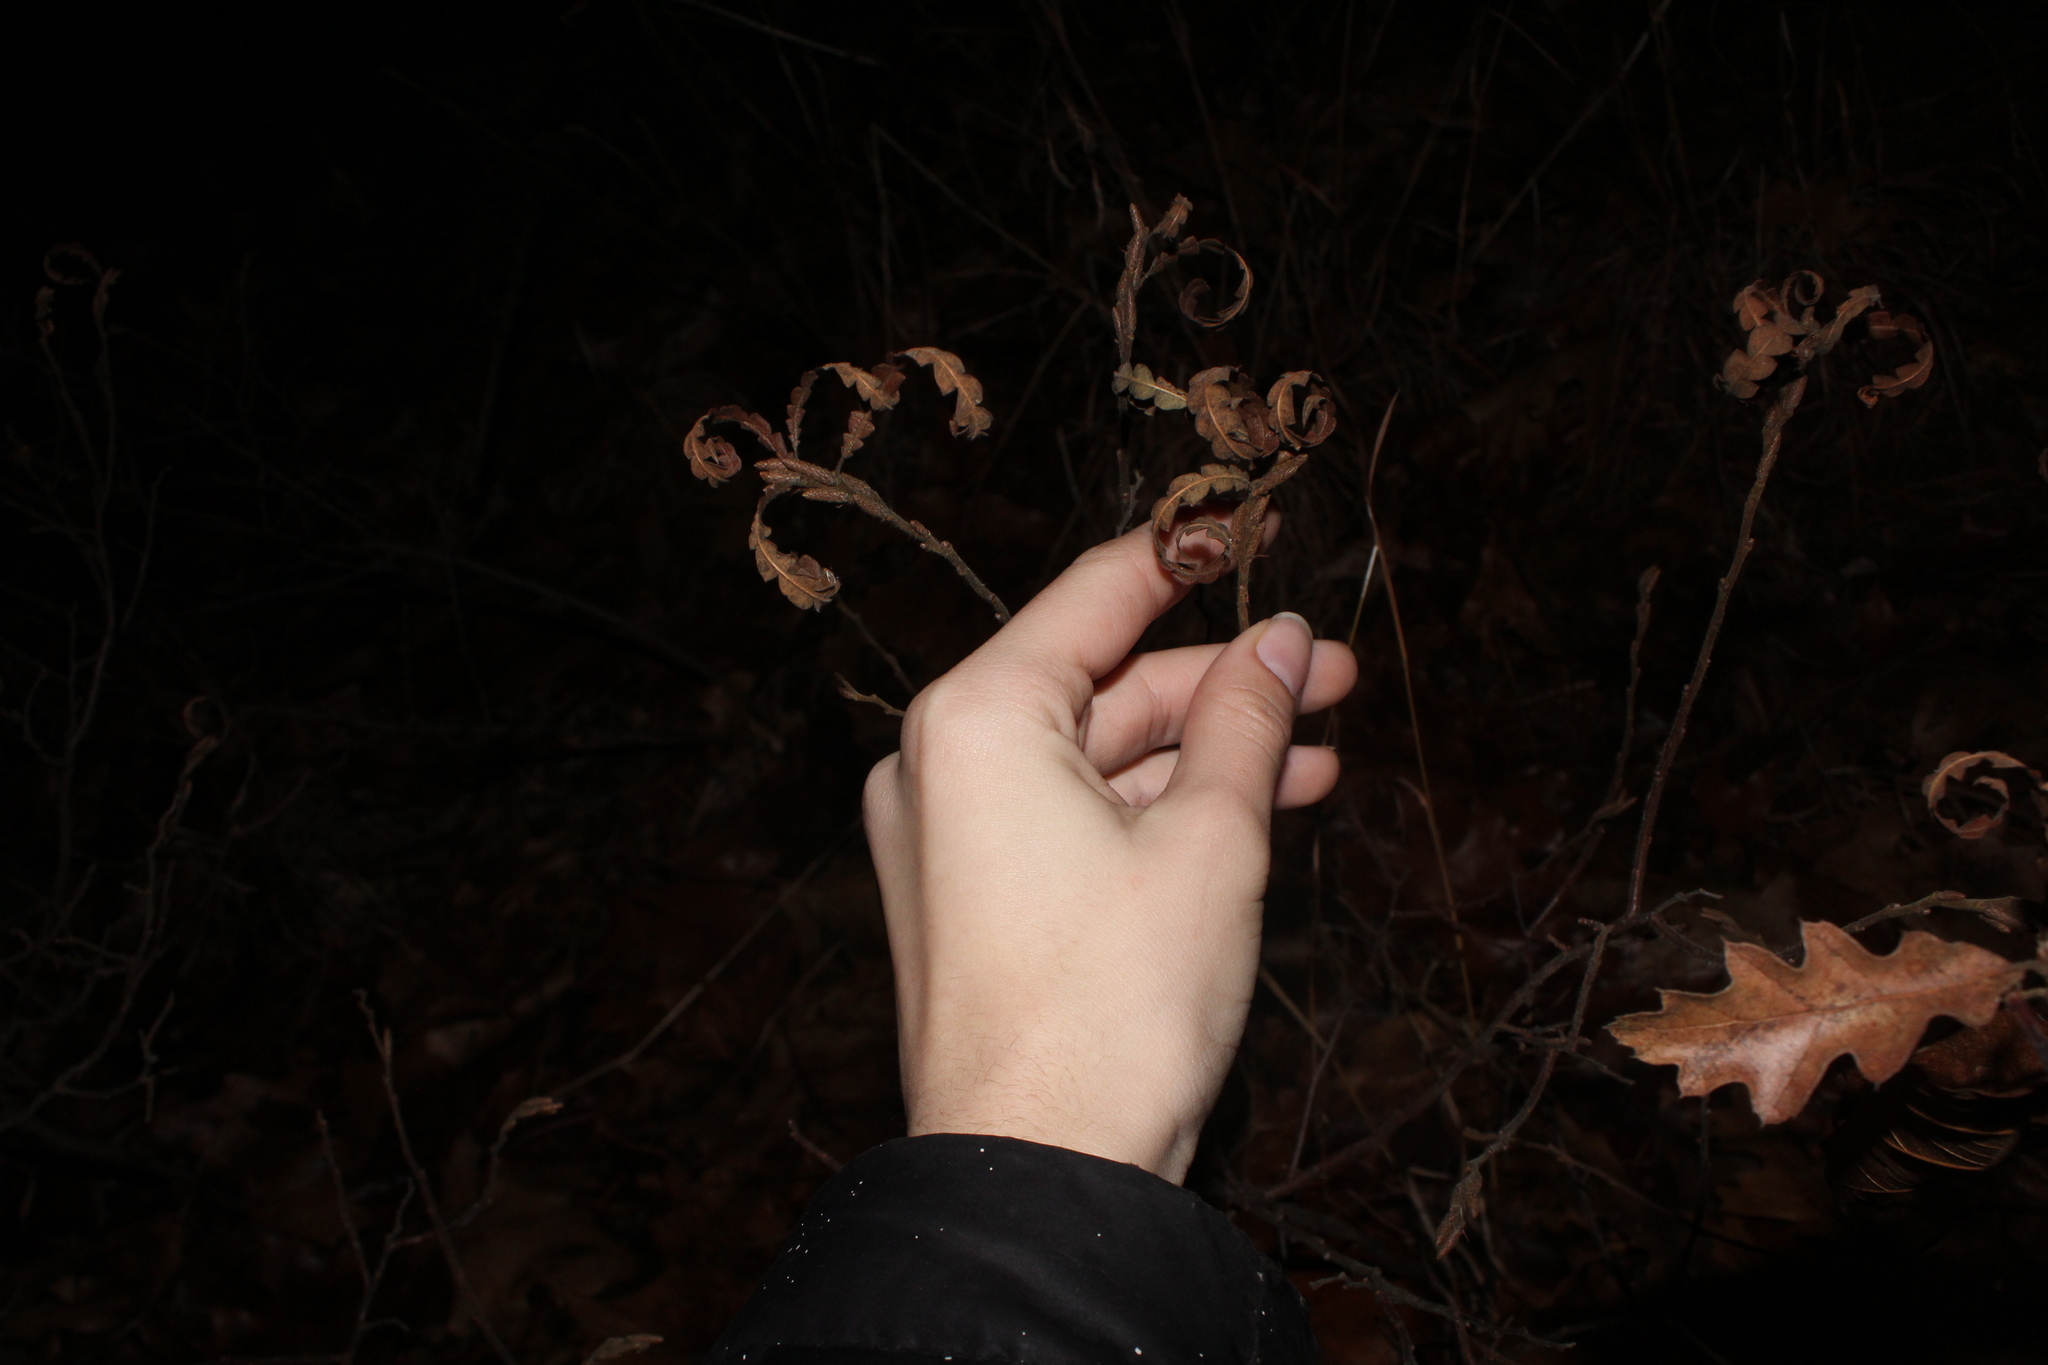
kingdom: Plantae
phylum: Tracheophyta
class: Magnoliopsida
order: Fagales
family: Myricaceae
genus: Comptonia
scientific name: Comptonia peregrina
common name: Sweet-fern
